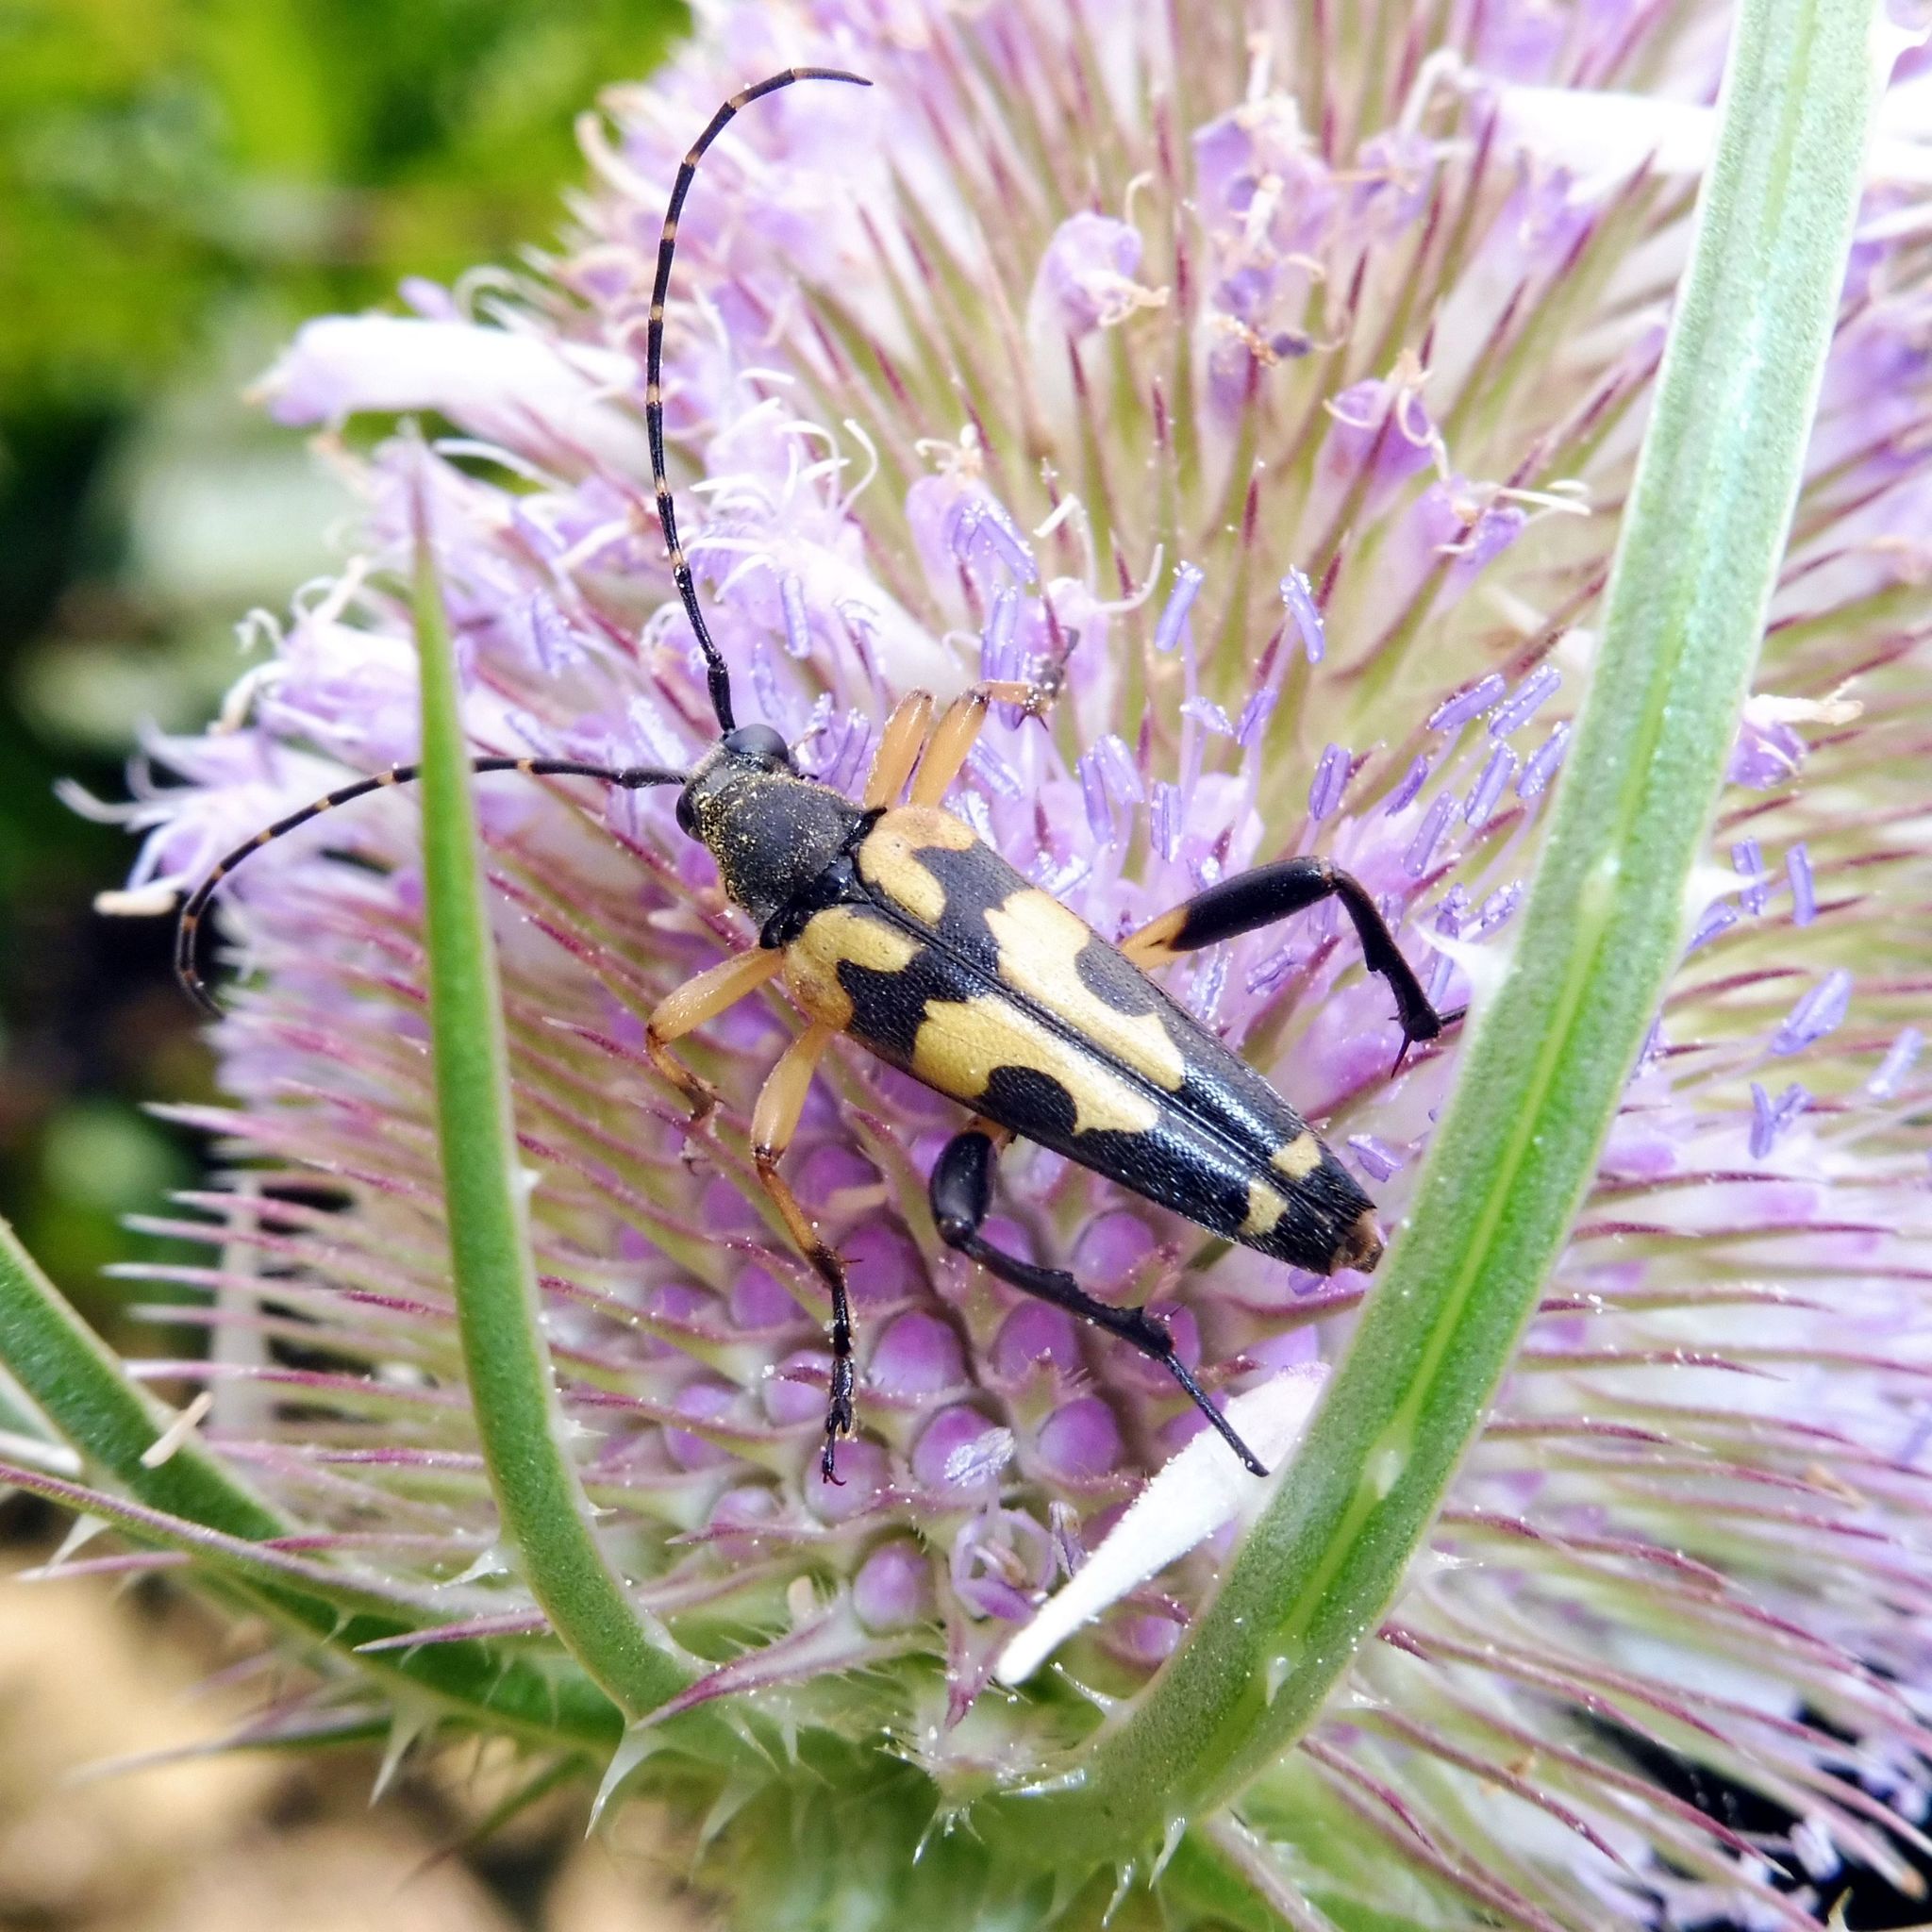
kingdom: Animalia
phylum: Arthropoda
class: Insecta
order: Coleoptera
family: Cerambycidae
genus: Rutpela
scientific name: Rutpela maculata
